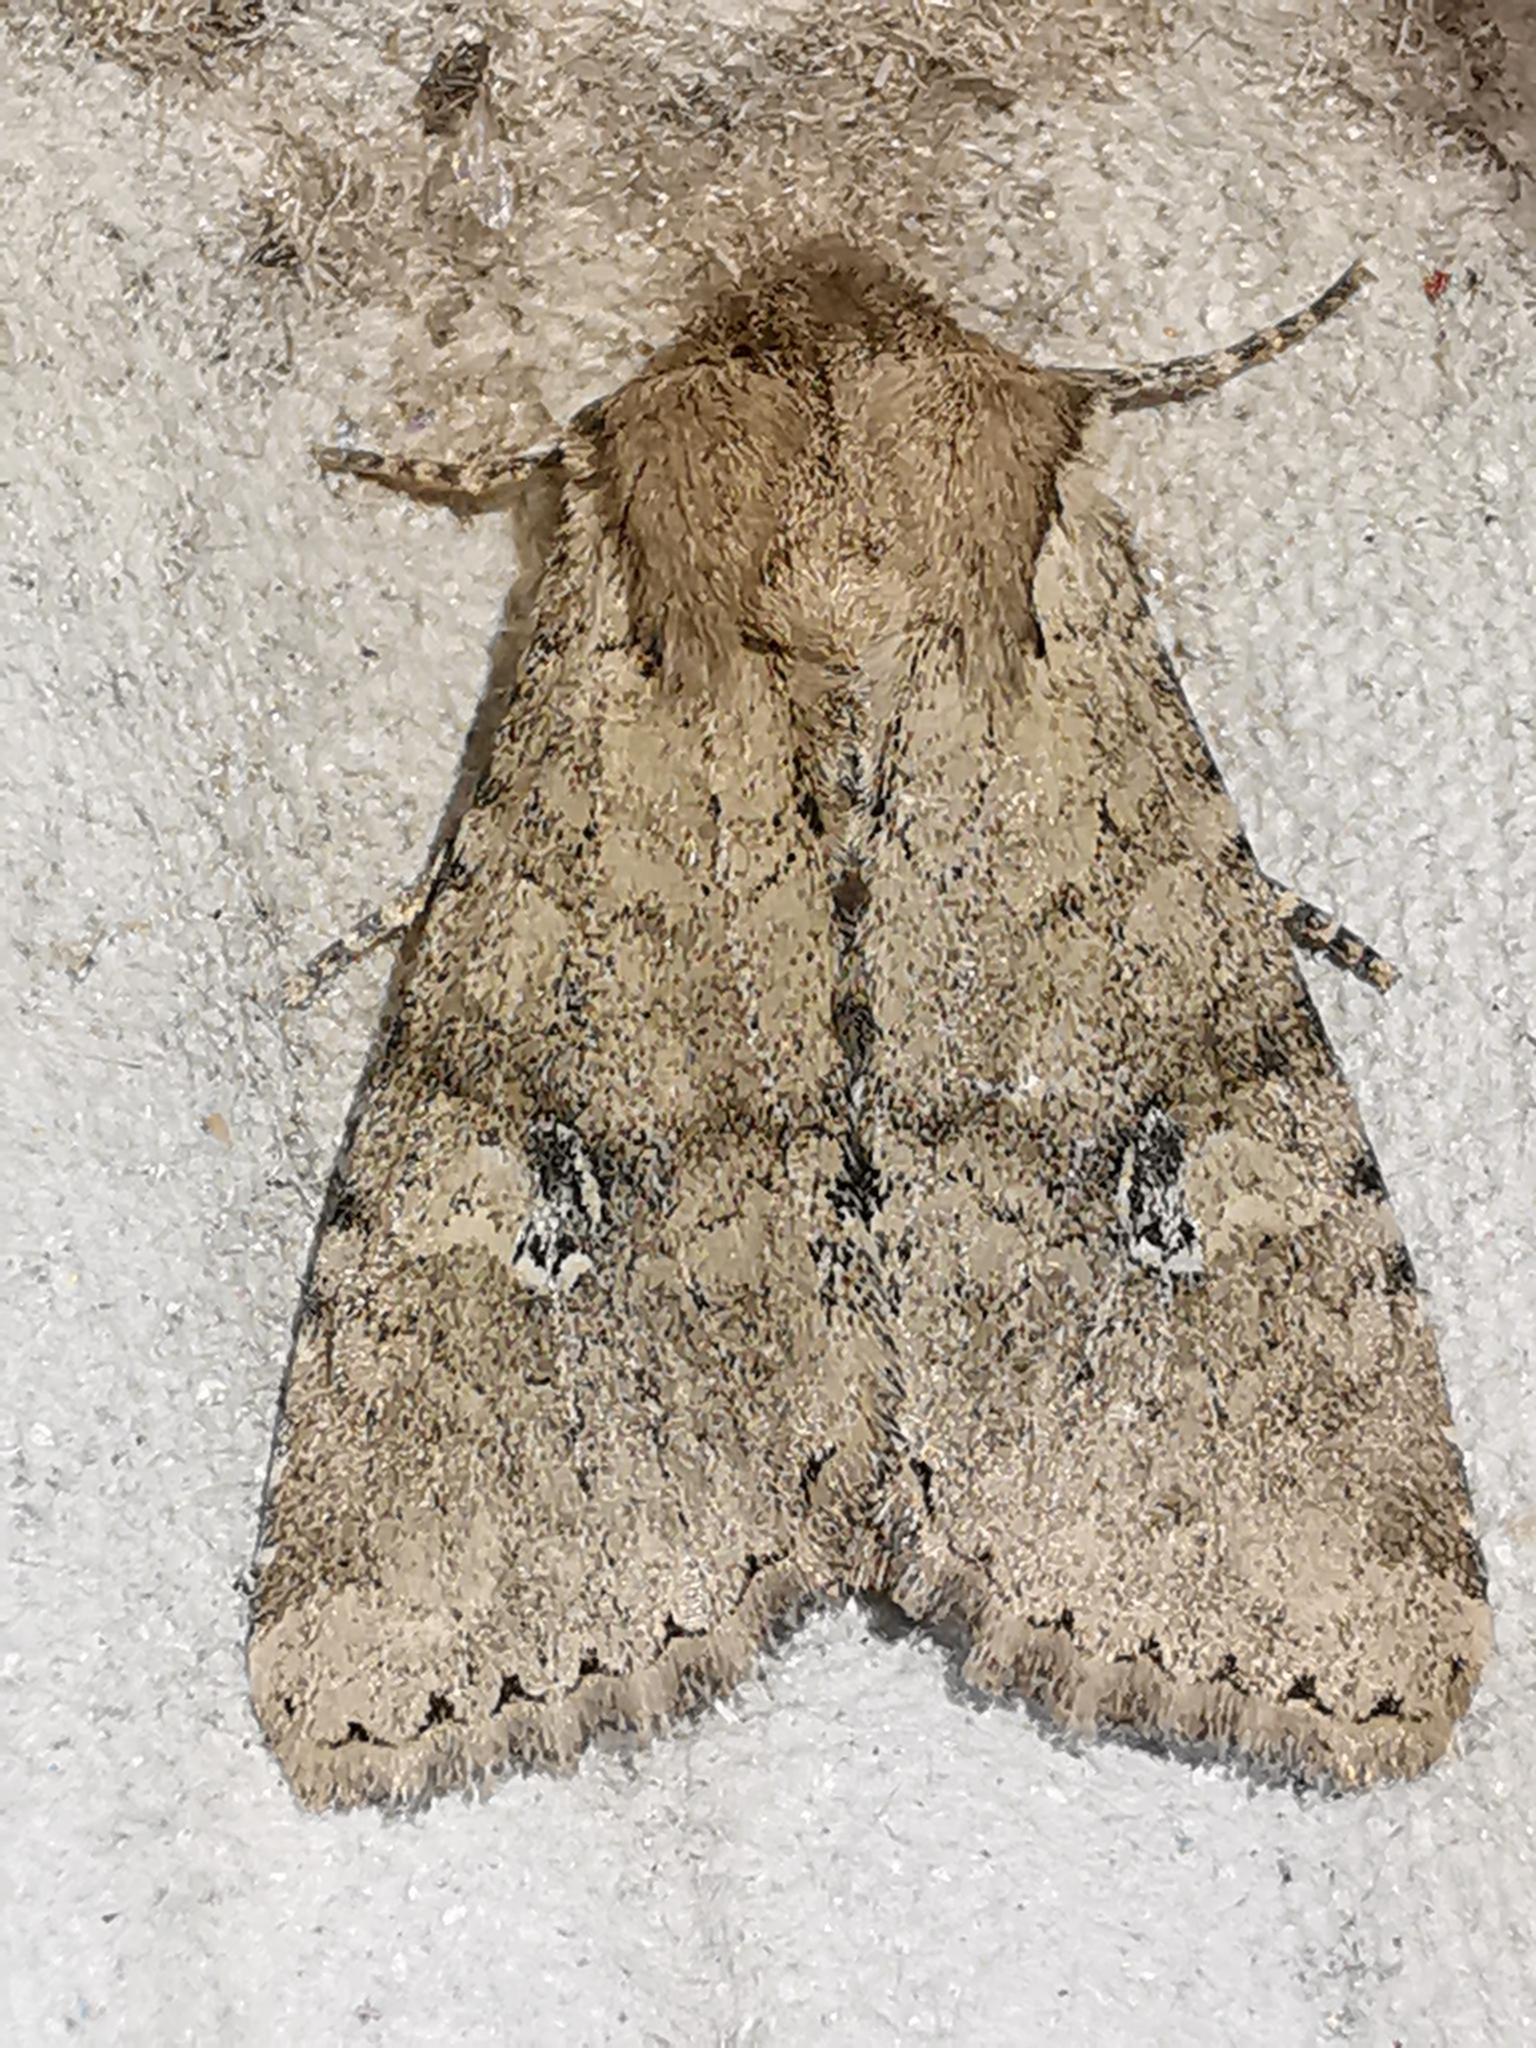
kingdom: Animalia
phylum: Arthropoda
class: Insecta
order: Lepidoptera
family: Noctuidae
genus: Apamea
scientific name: Apamea sordens
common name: Rustic shoulder-knot
